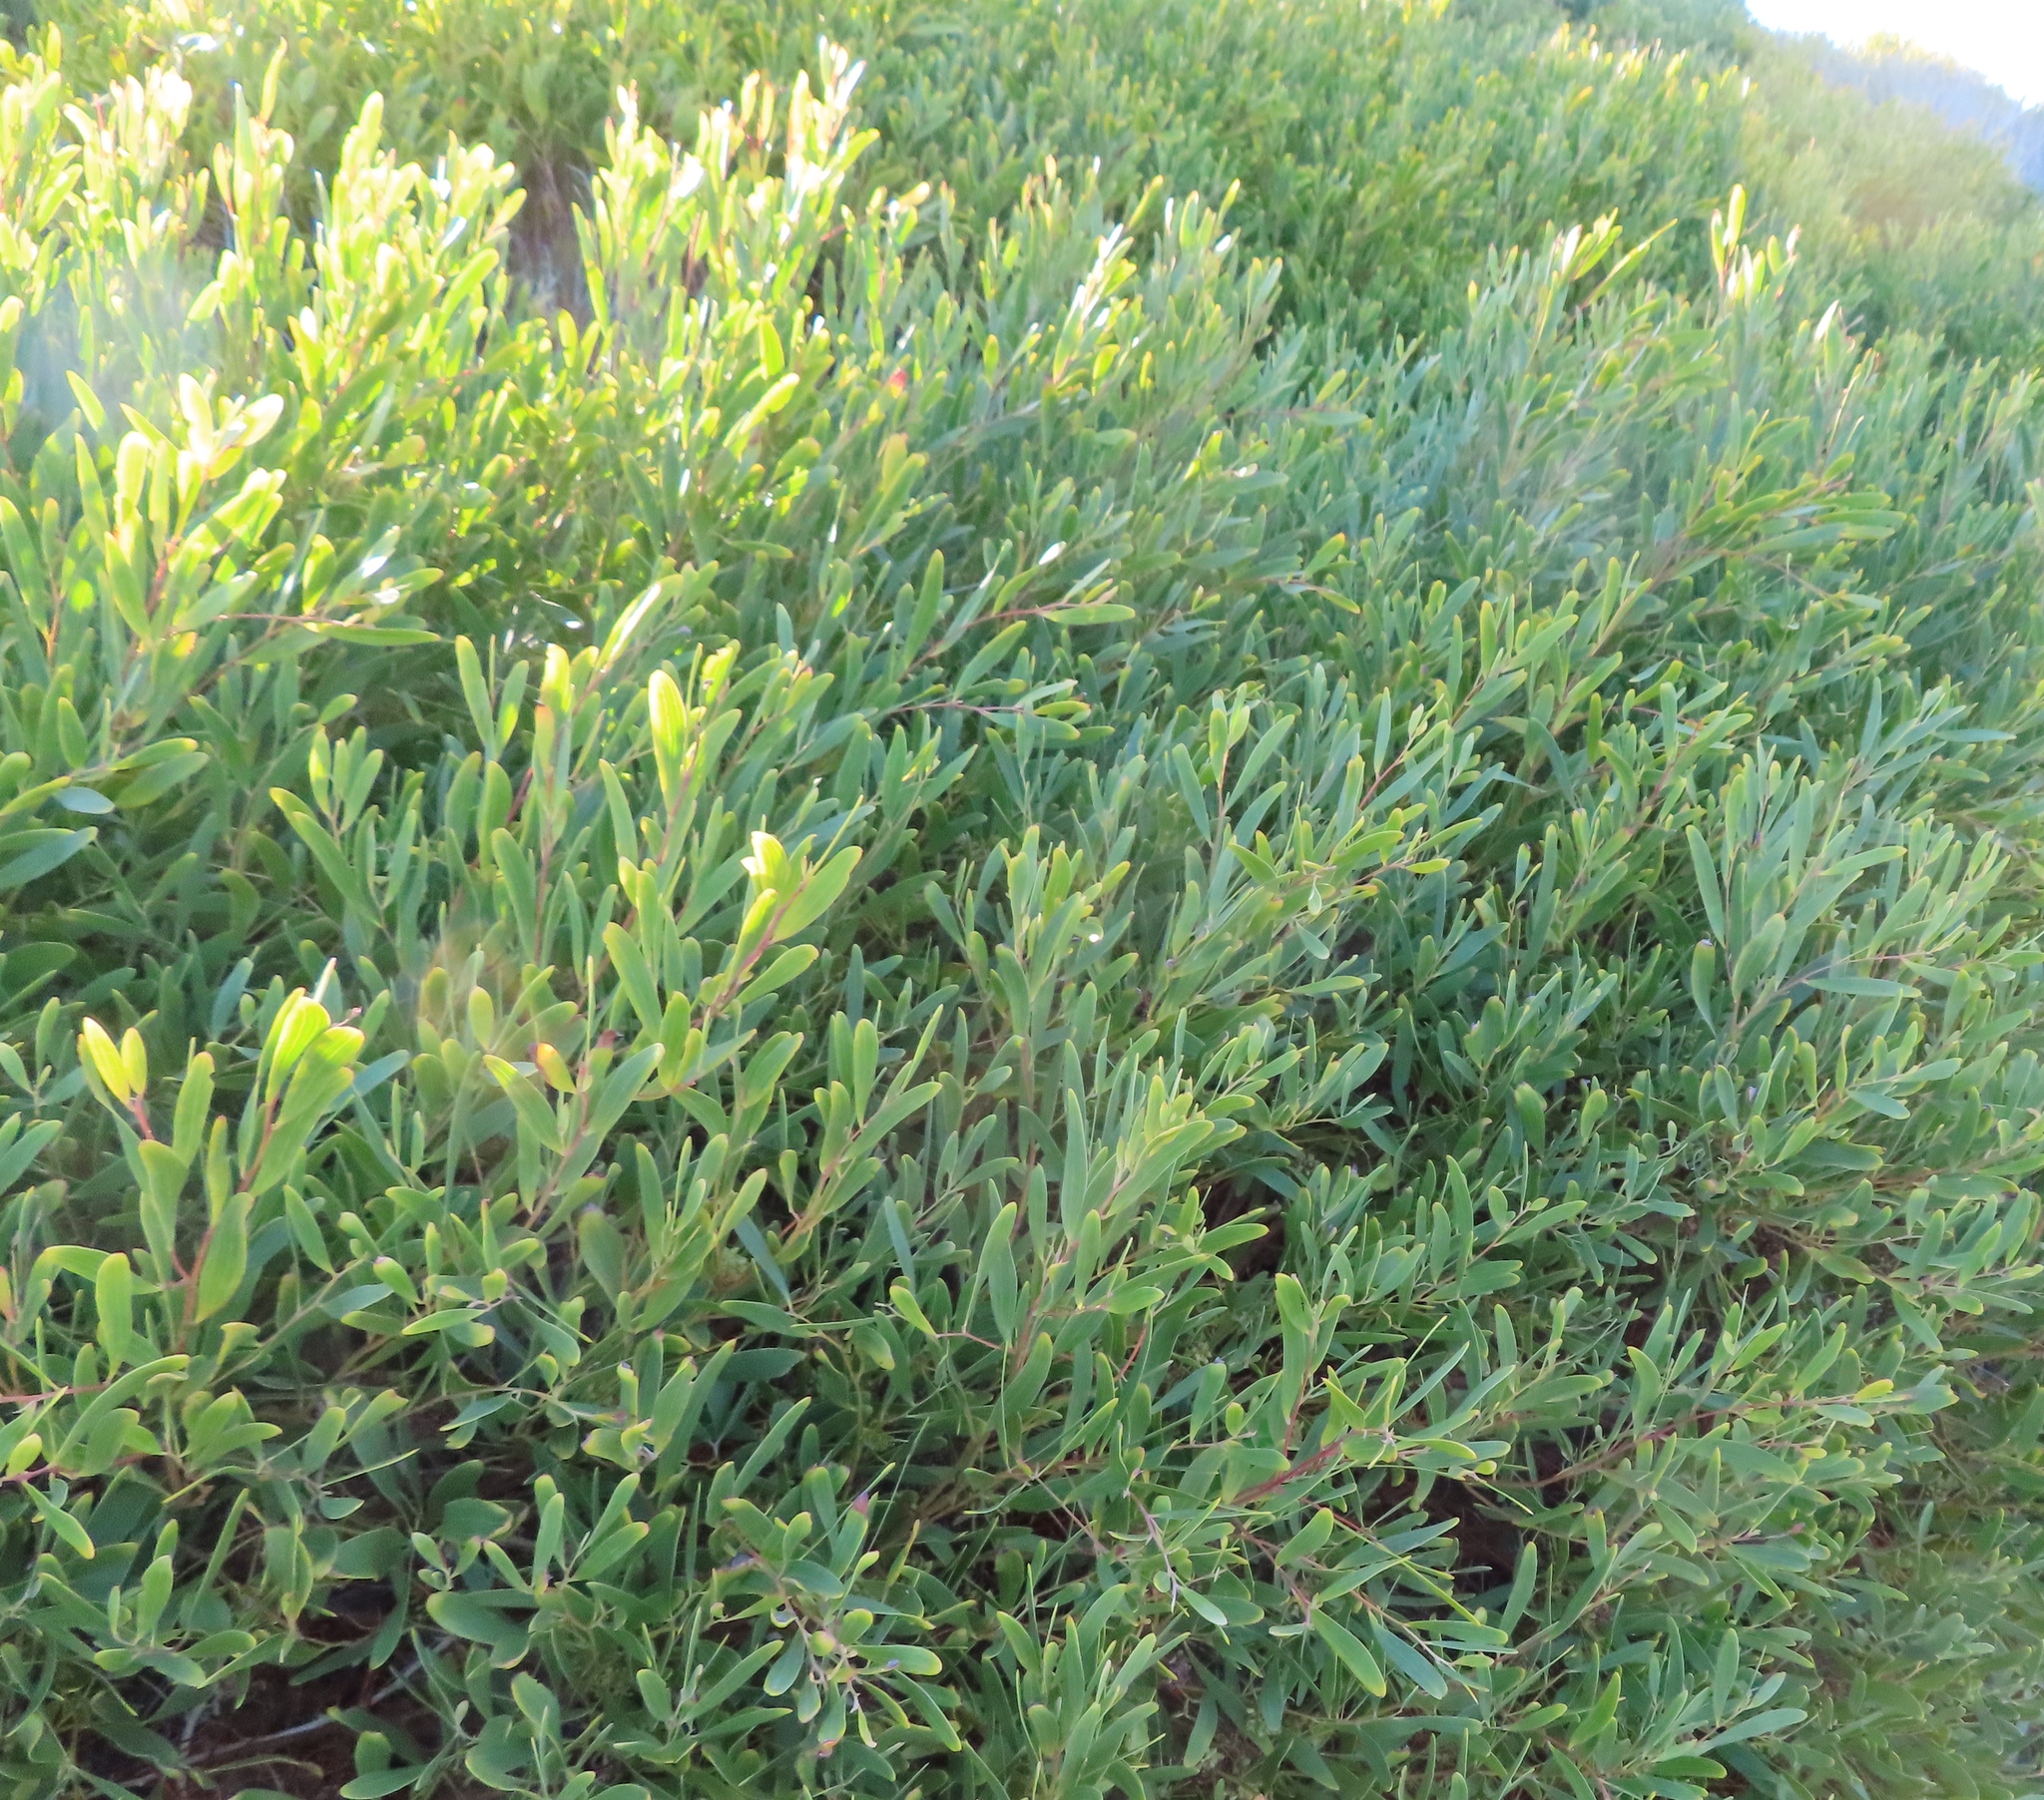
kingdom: Plantae
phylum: Tracheophyta
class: Magnoliopsida
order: Fabales
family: Fabaceae
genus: Acacia
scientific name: Acacia cyclops
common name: Coastal wattle
